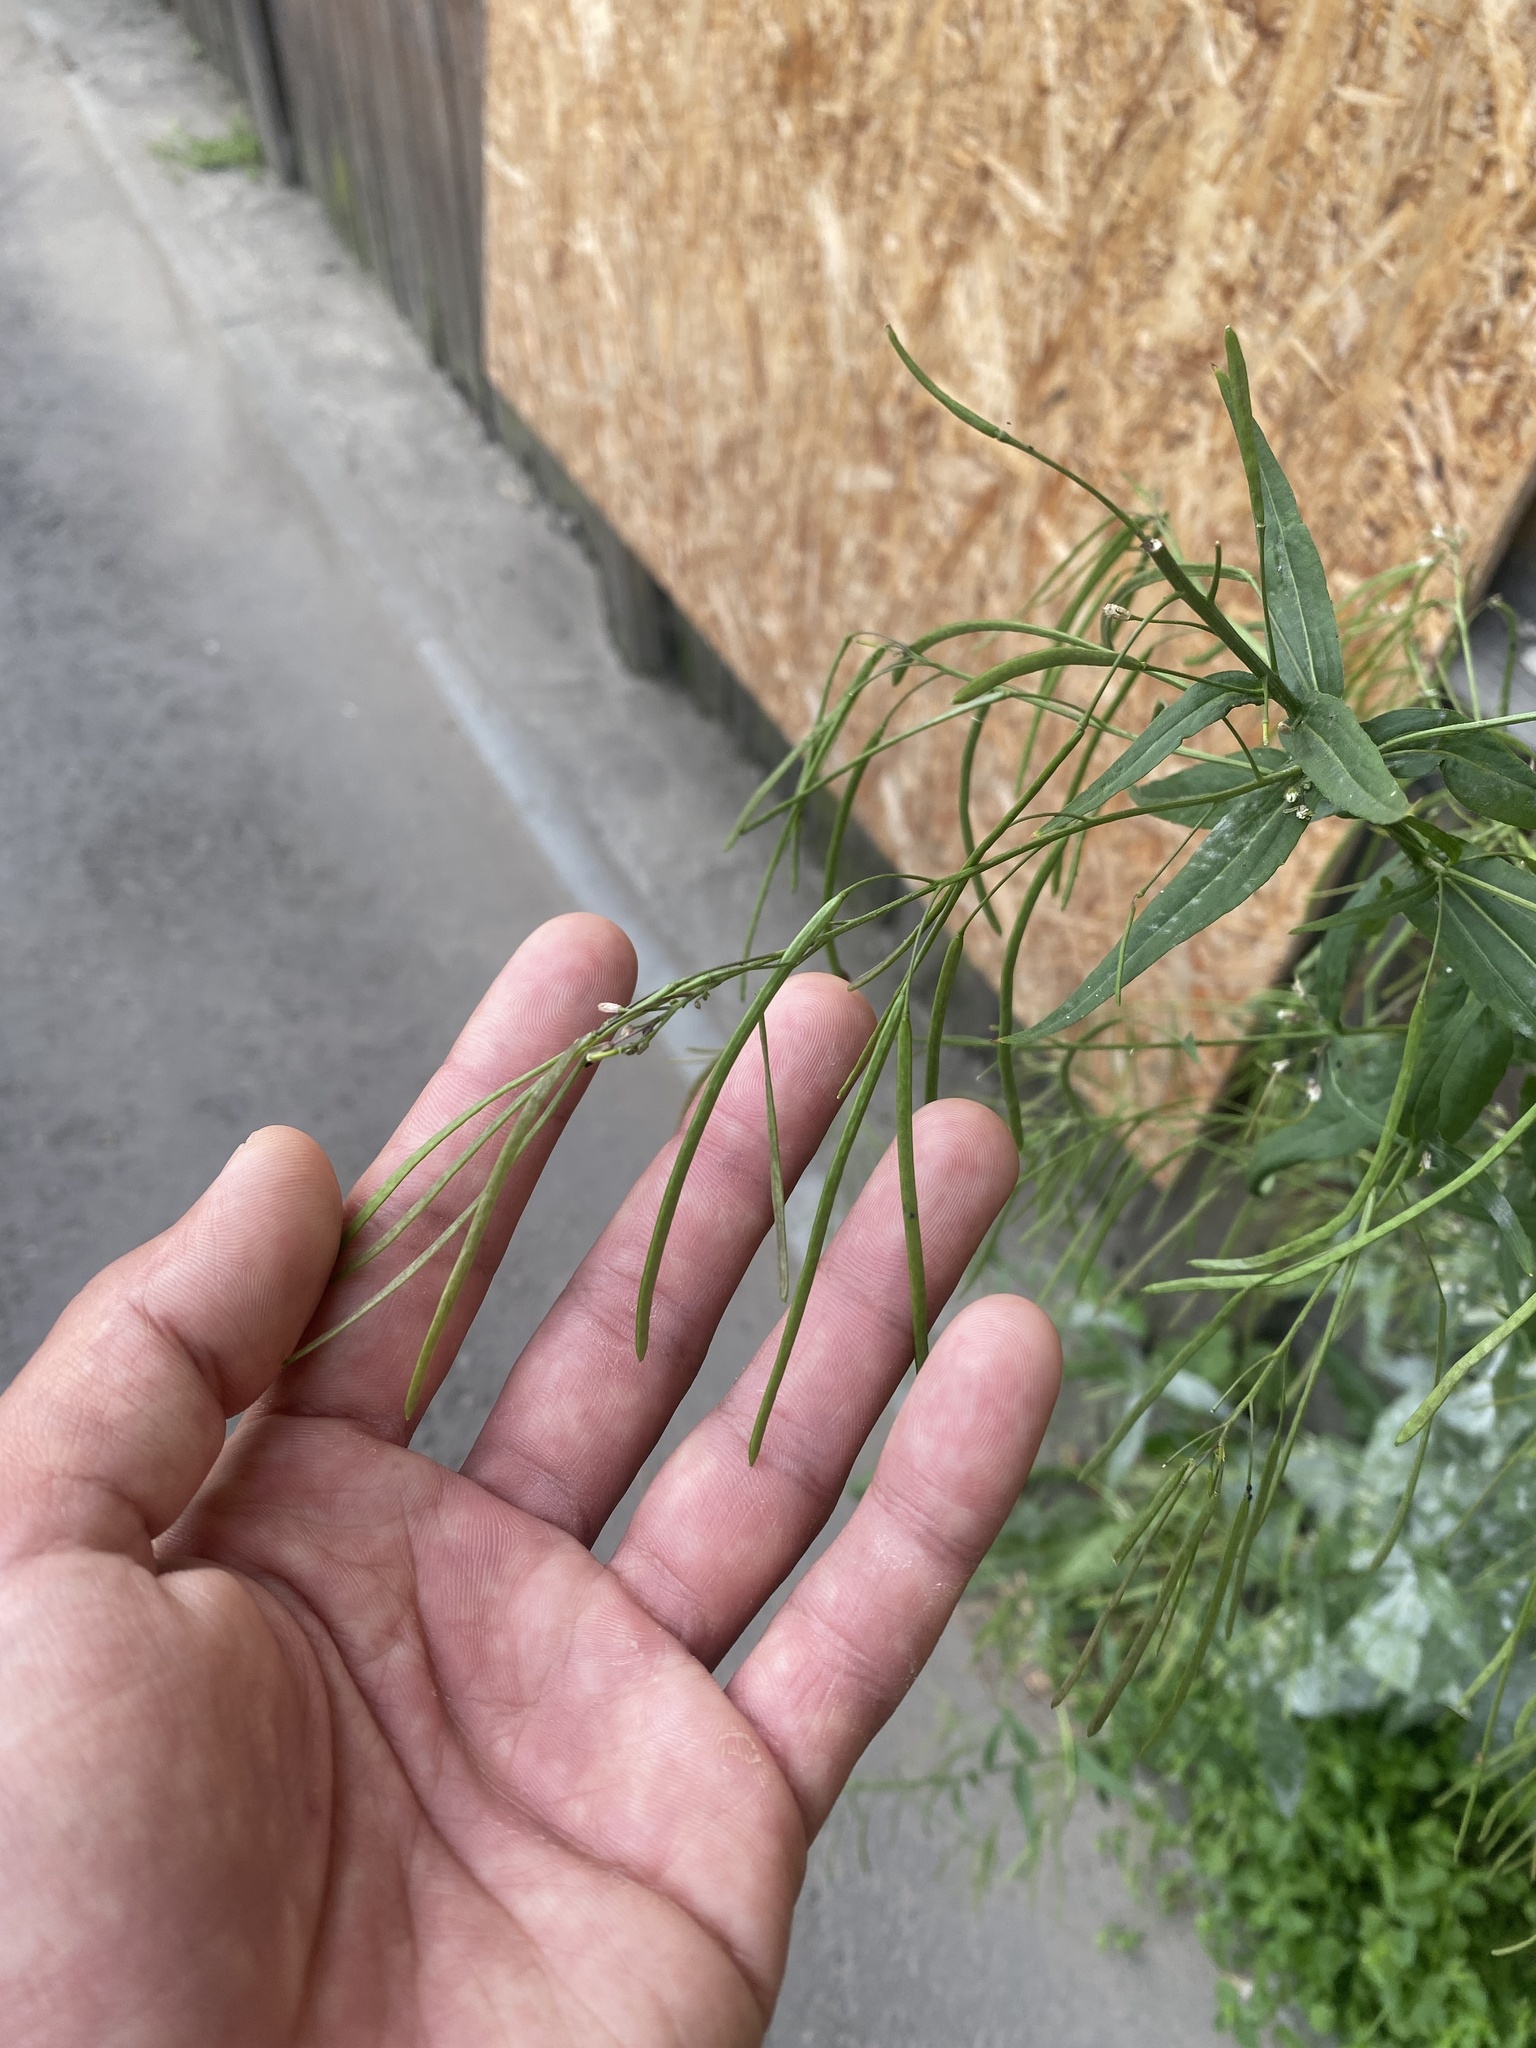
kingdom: Plantae
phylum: Tracheophyta
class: Magnoliopsida
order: Brassicales
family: Brassicaceae
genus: Catolobus
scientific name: Catolobus pendulus
